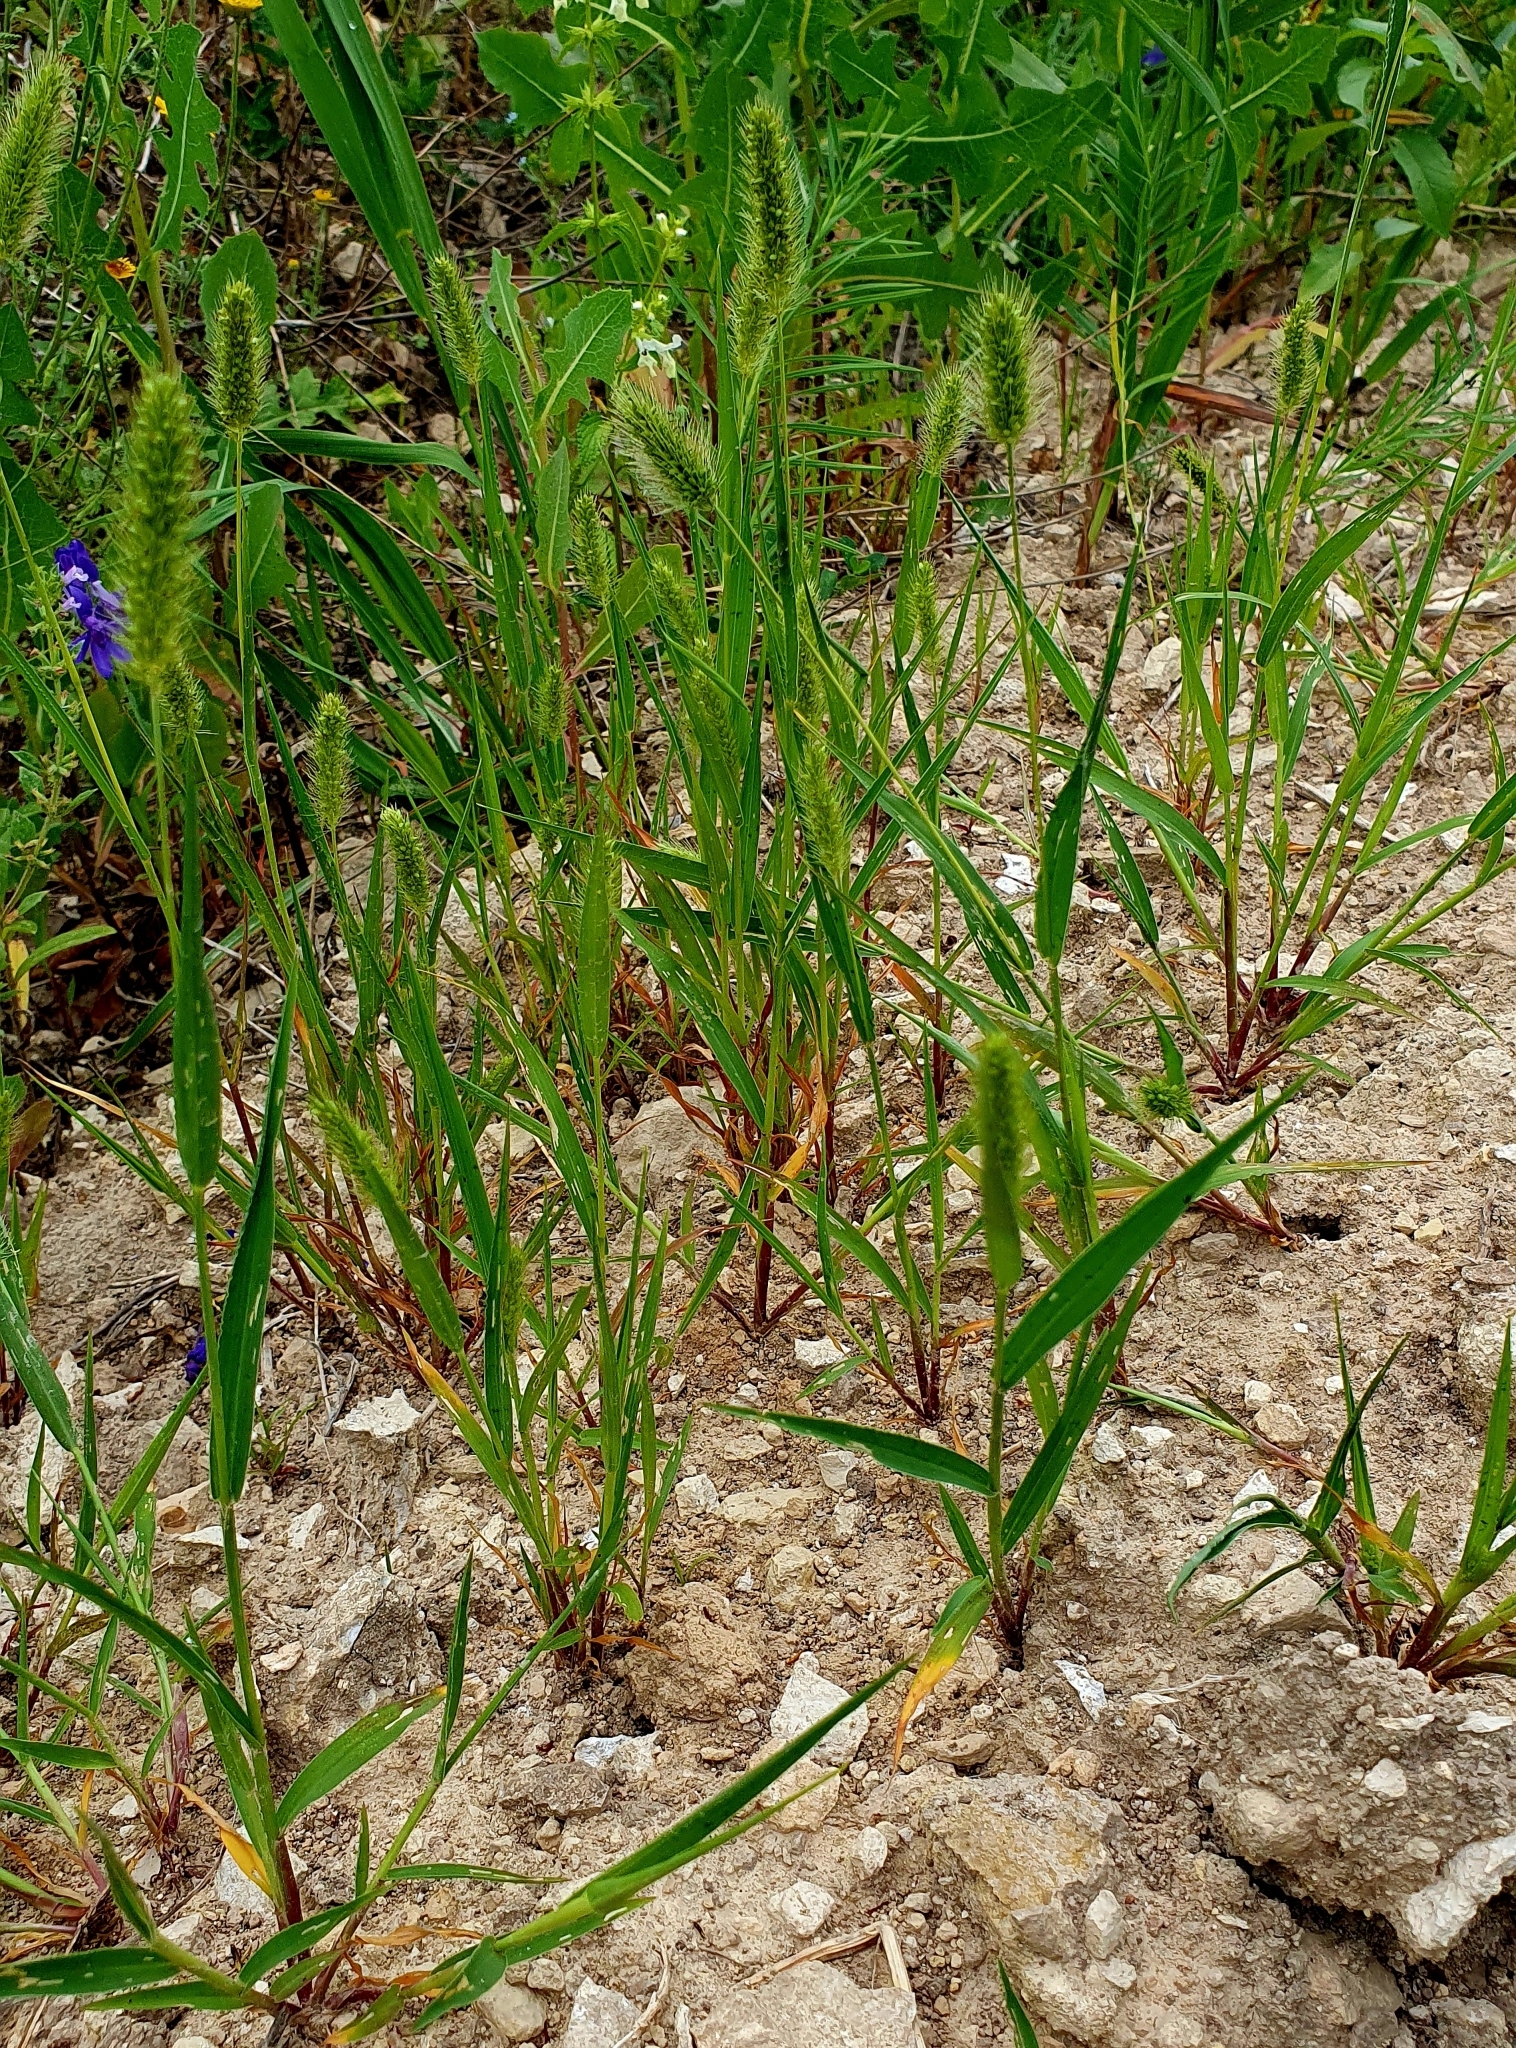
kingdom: Plantae
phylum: Tracheophyta
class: Liliopsida
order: Poales
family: Poaceae
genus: Setaria
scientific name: Setaria viridis
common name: Green bristlegrass
